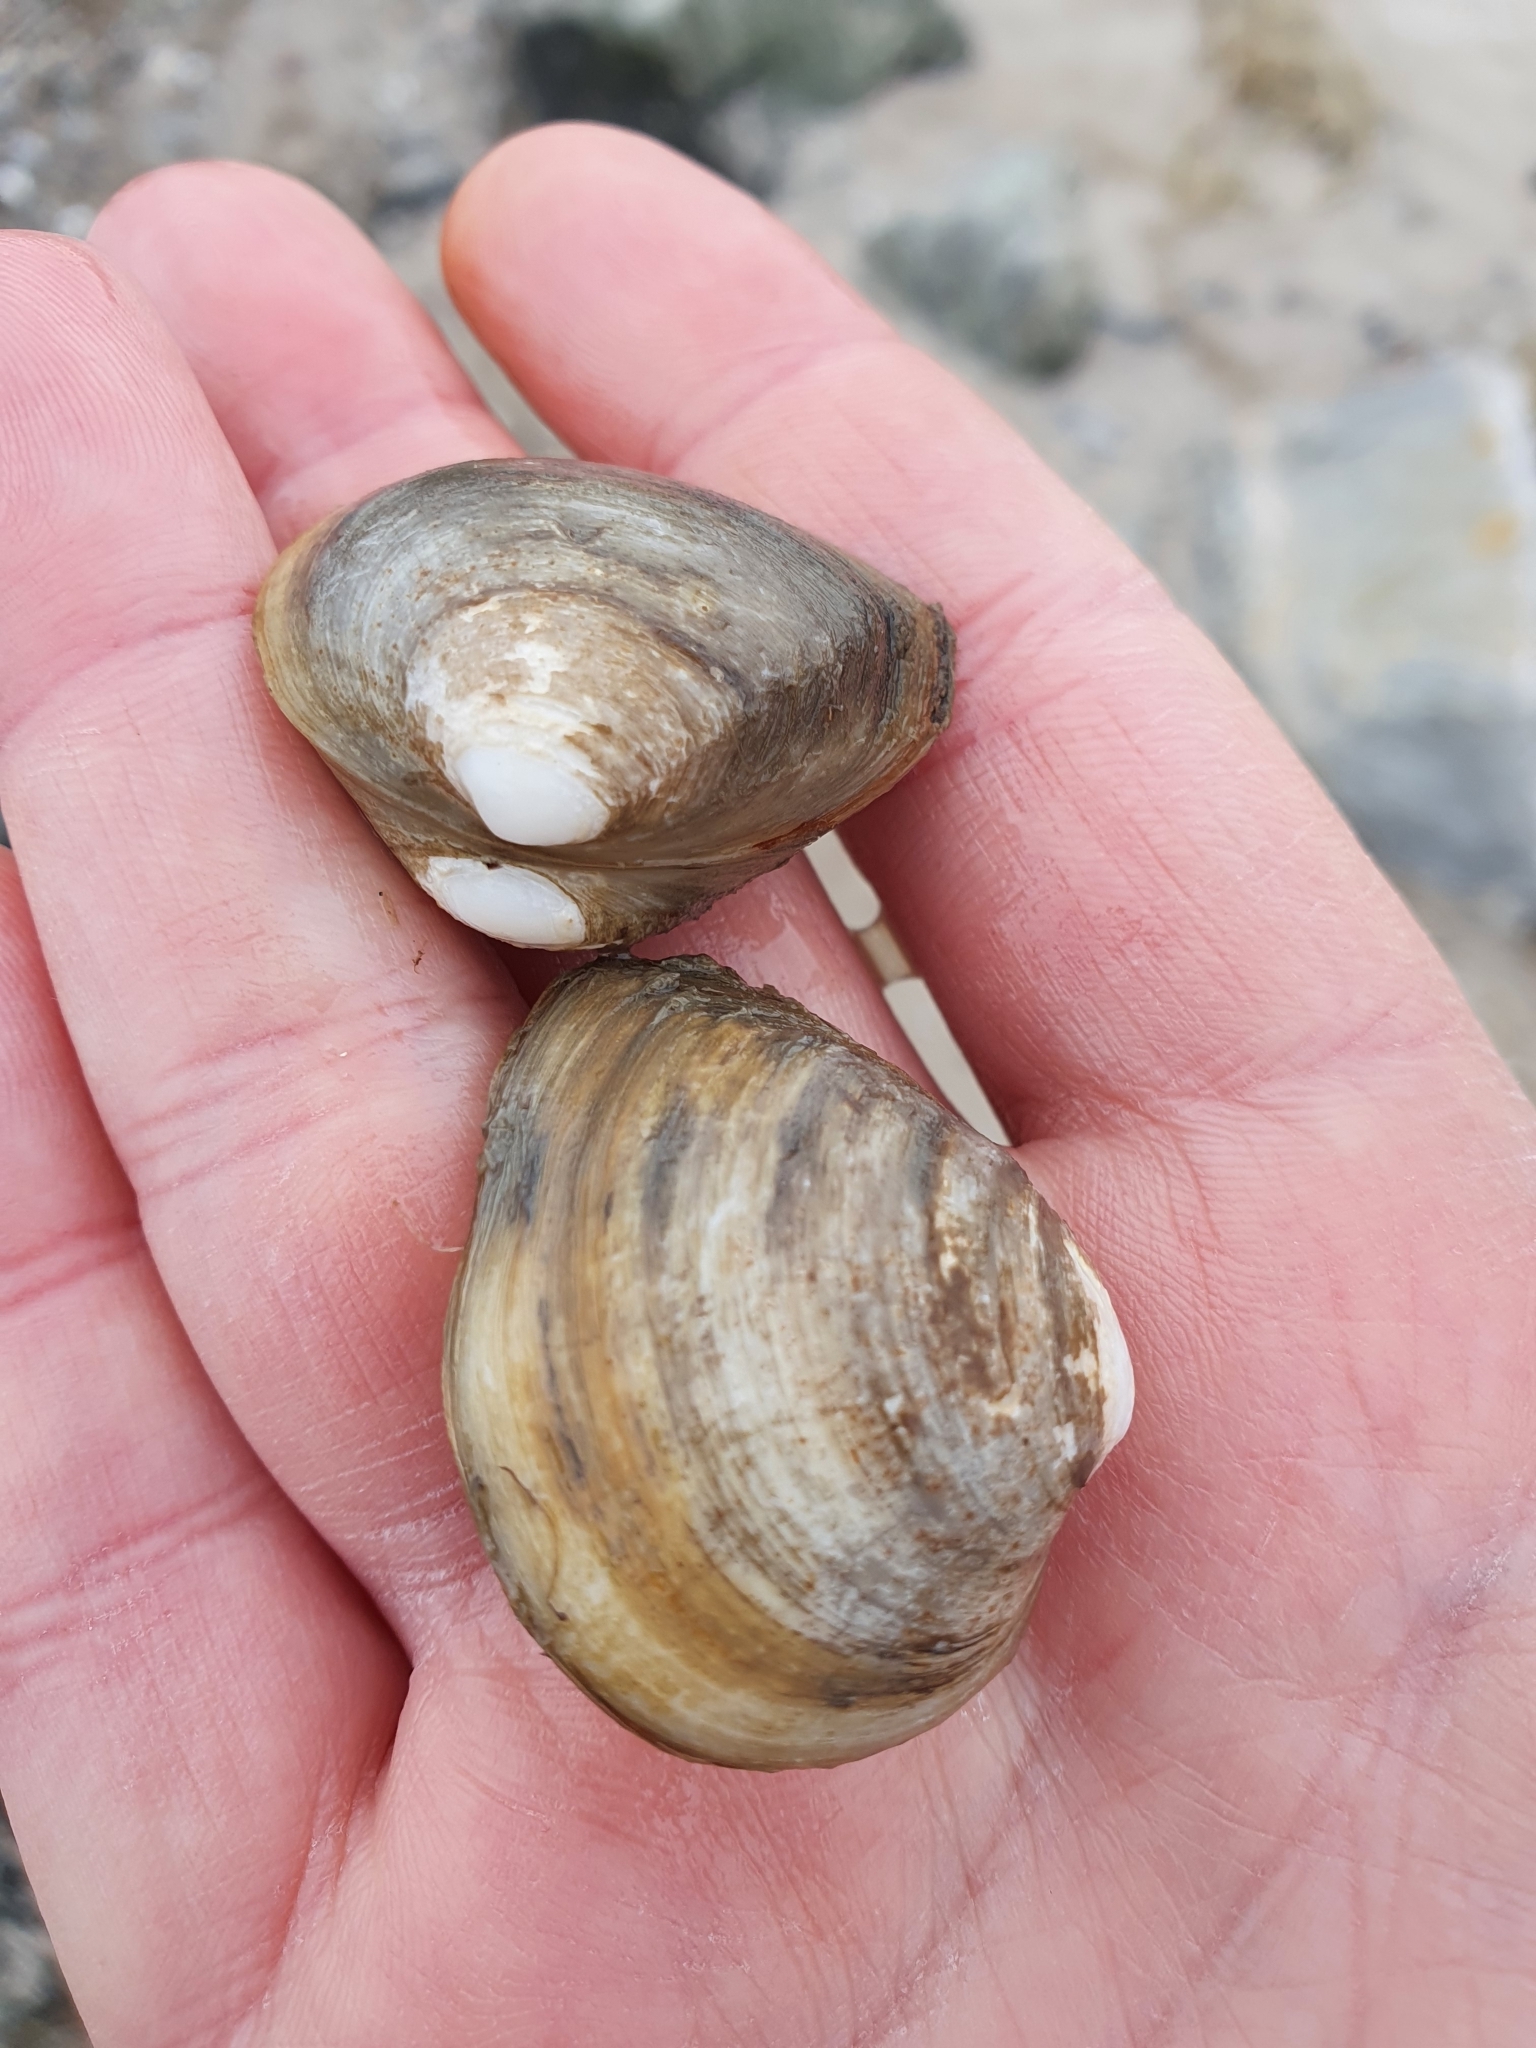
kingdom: Animalia
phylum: Mollusca
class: Bivalvia
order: Venerida
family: Mactridae
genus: Rangia
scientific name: Rangia cuneata
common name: Atlantic rangia
